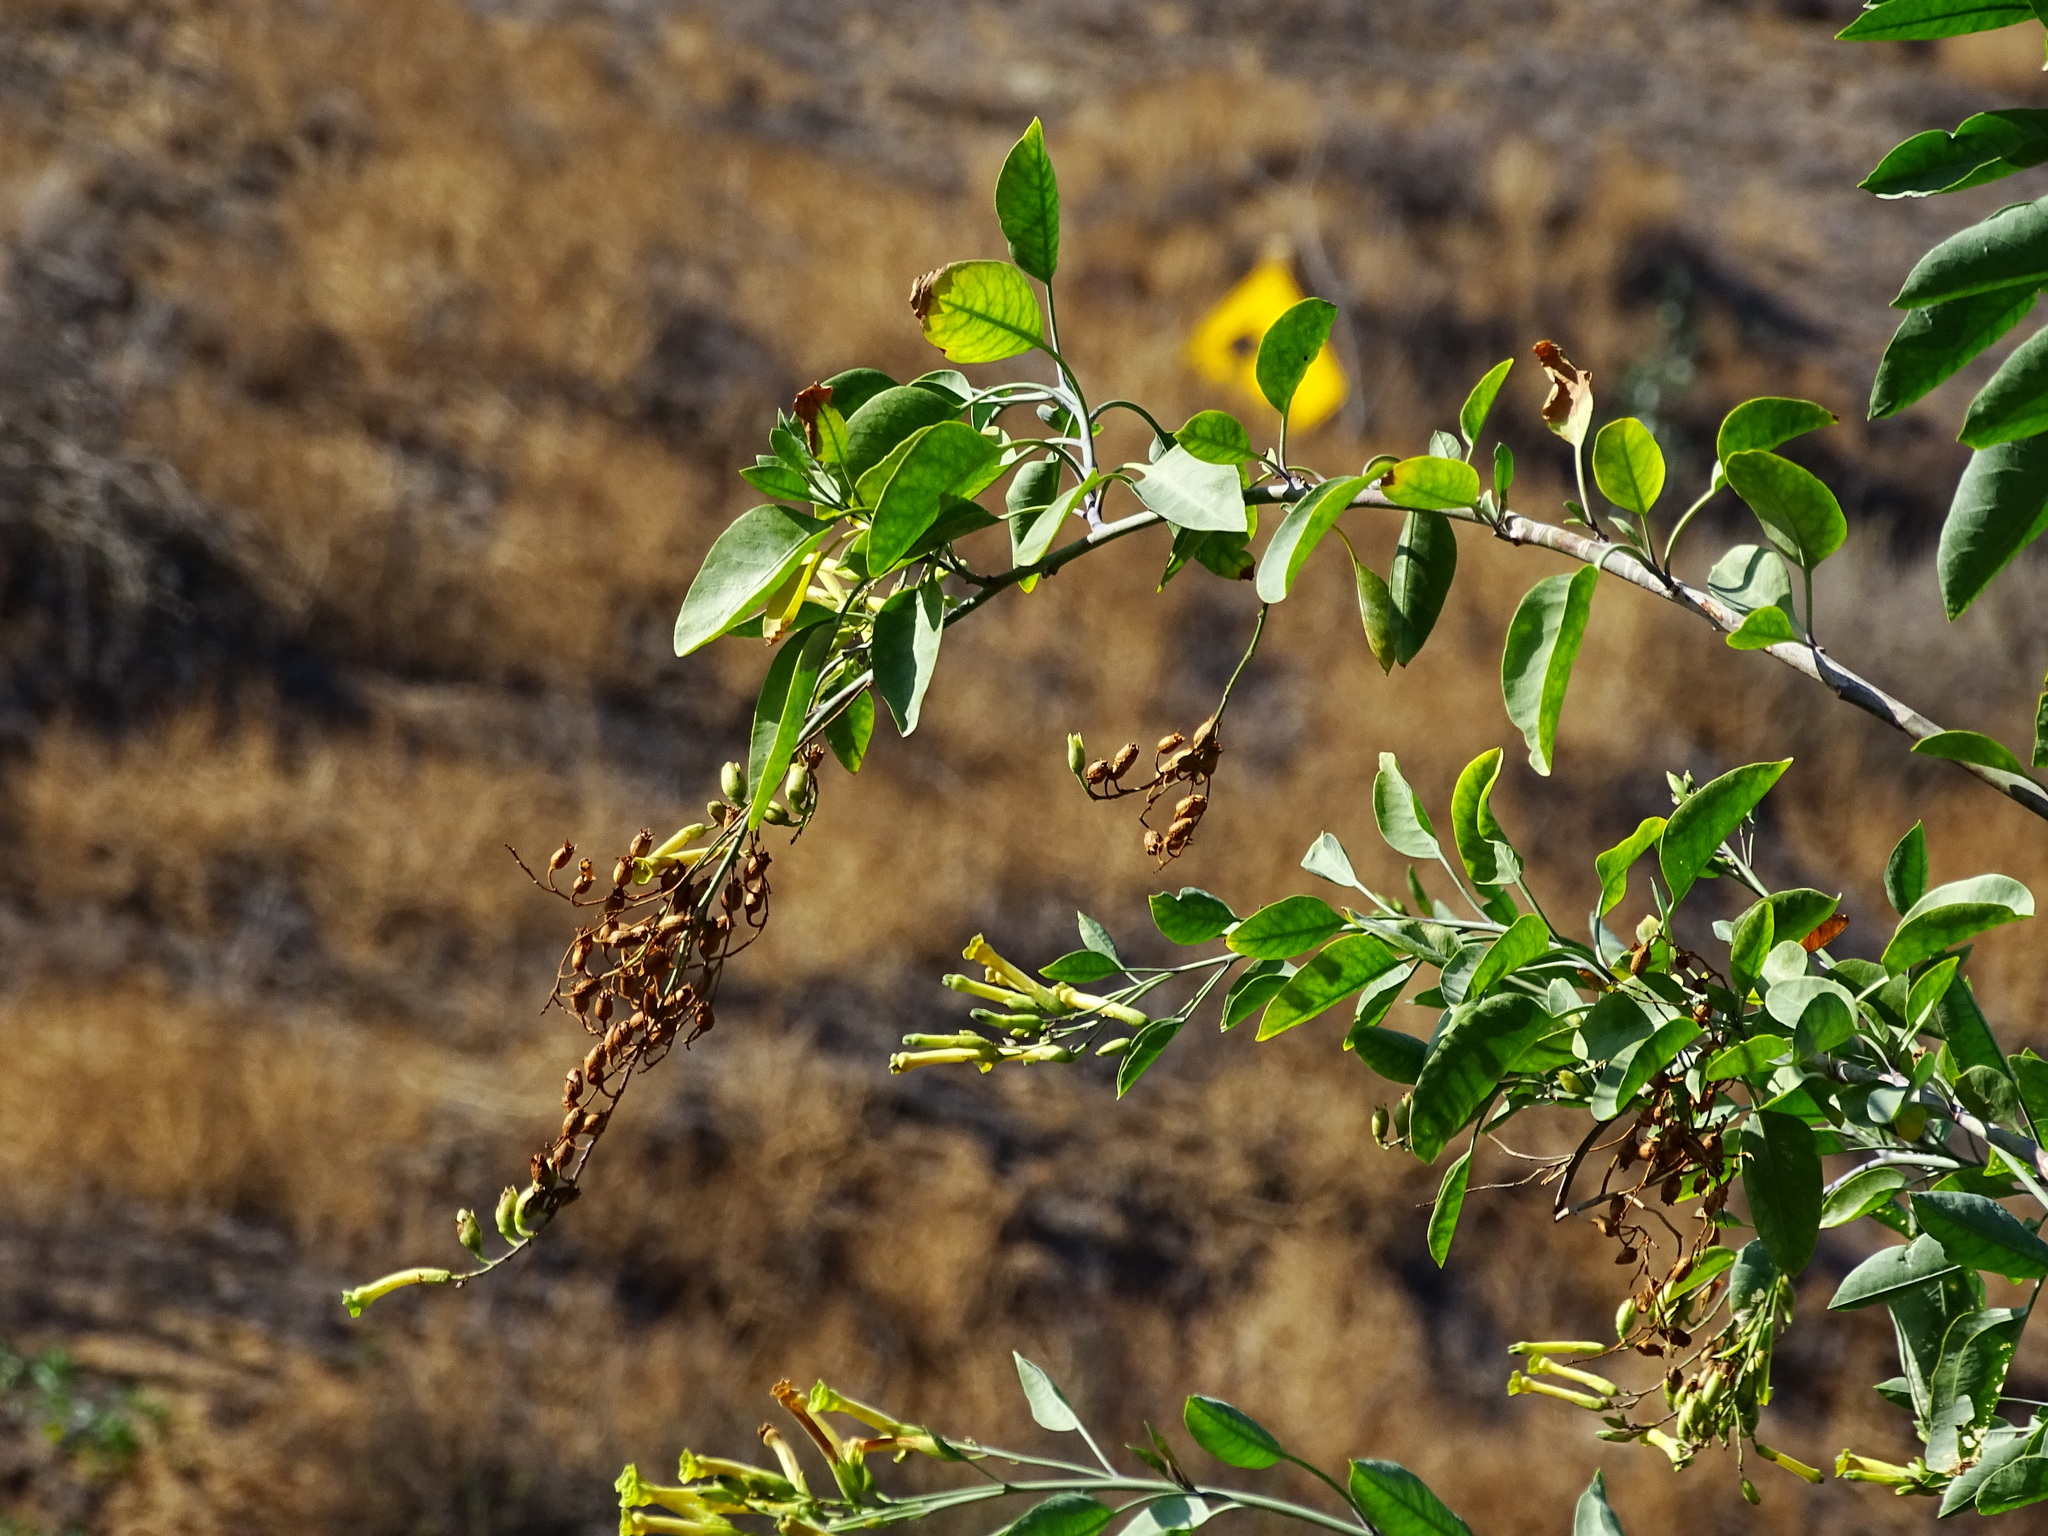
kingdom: Plantae
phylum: Tracheophyta
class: Magnoliopsida
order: Solanales
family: Solanaceae
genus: Nicotiana
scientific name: Nicotiana glauca
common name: Tree tobacco
